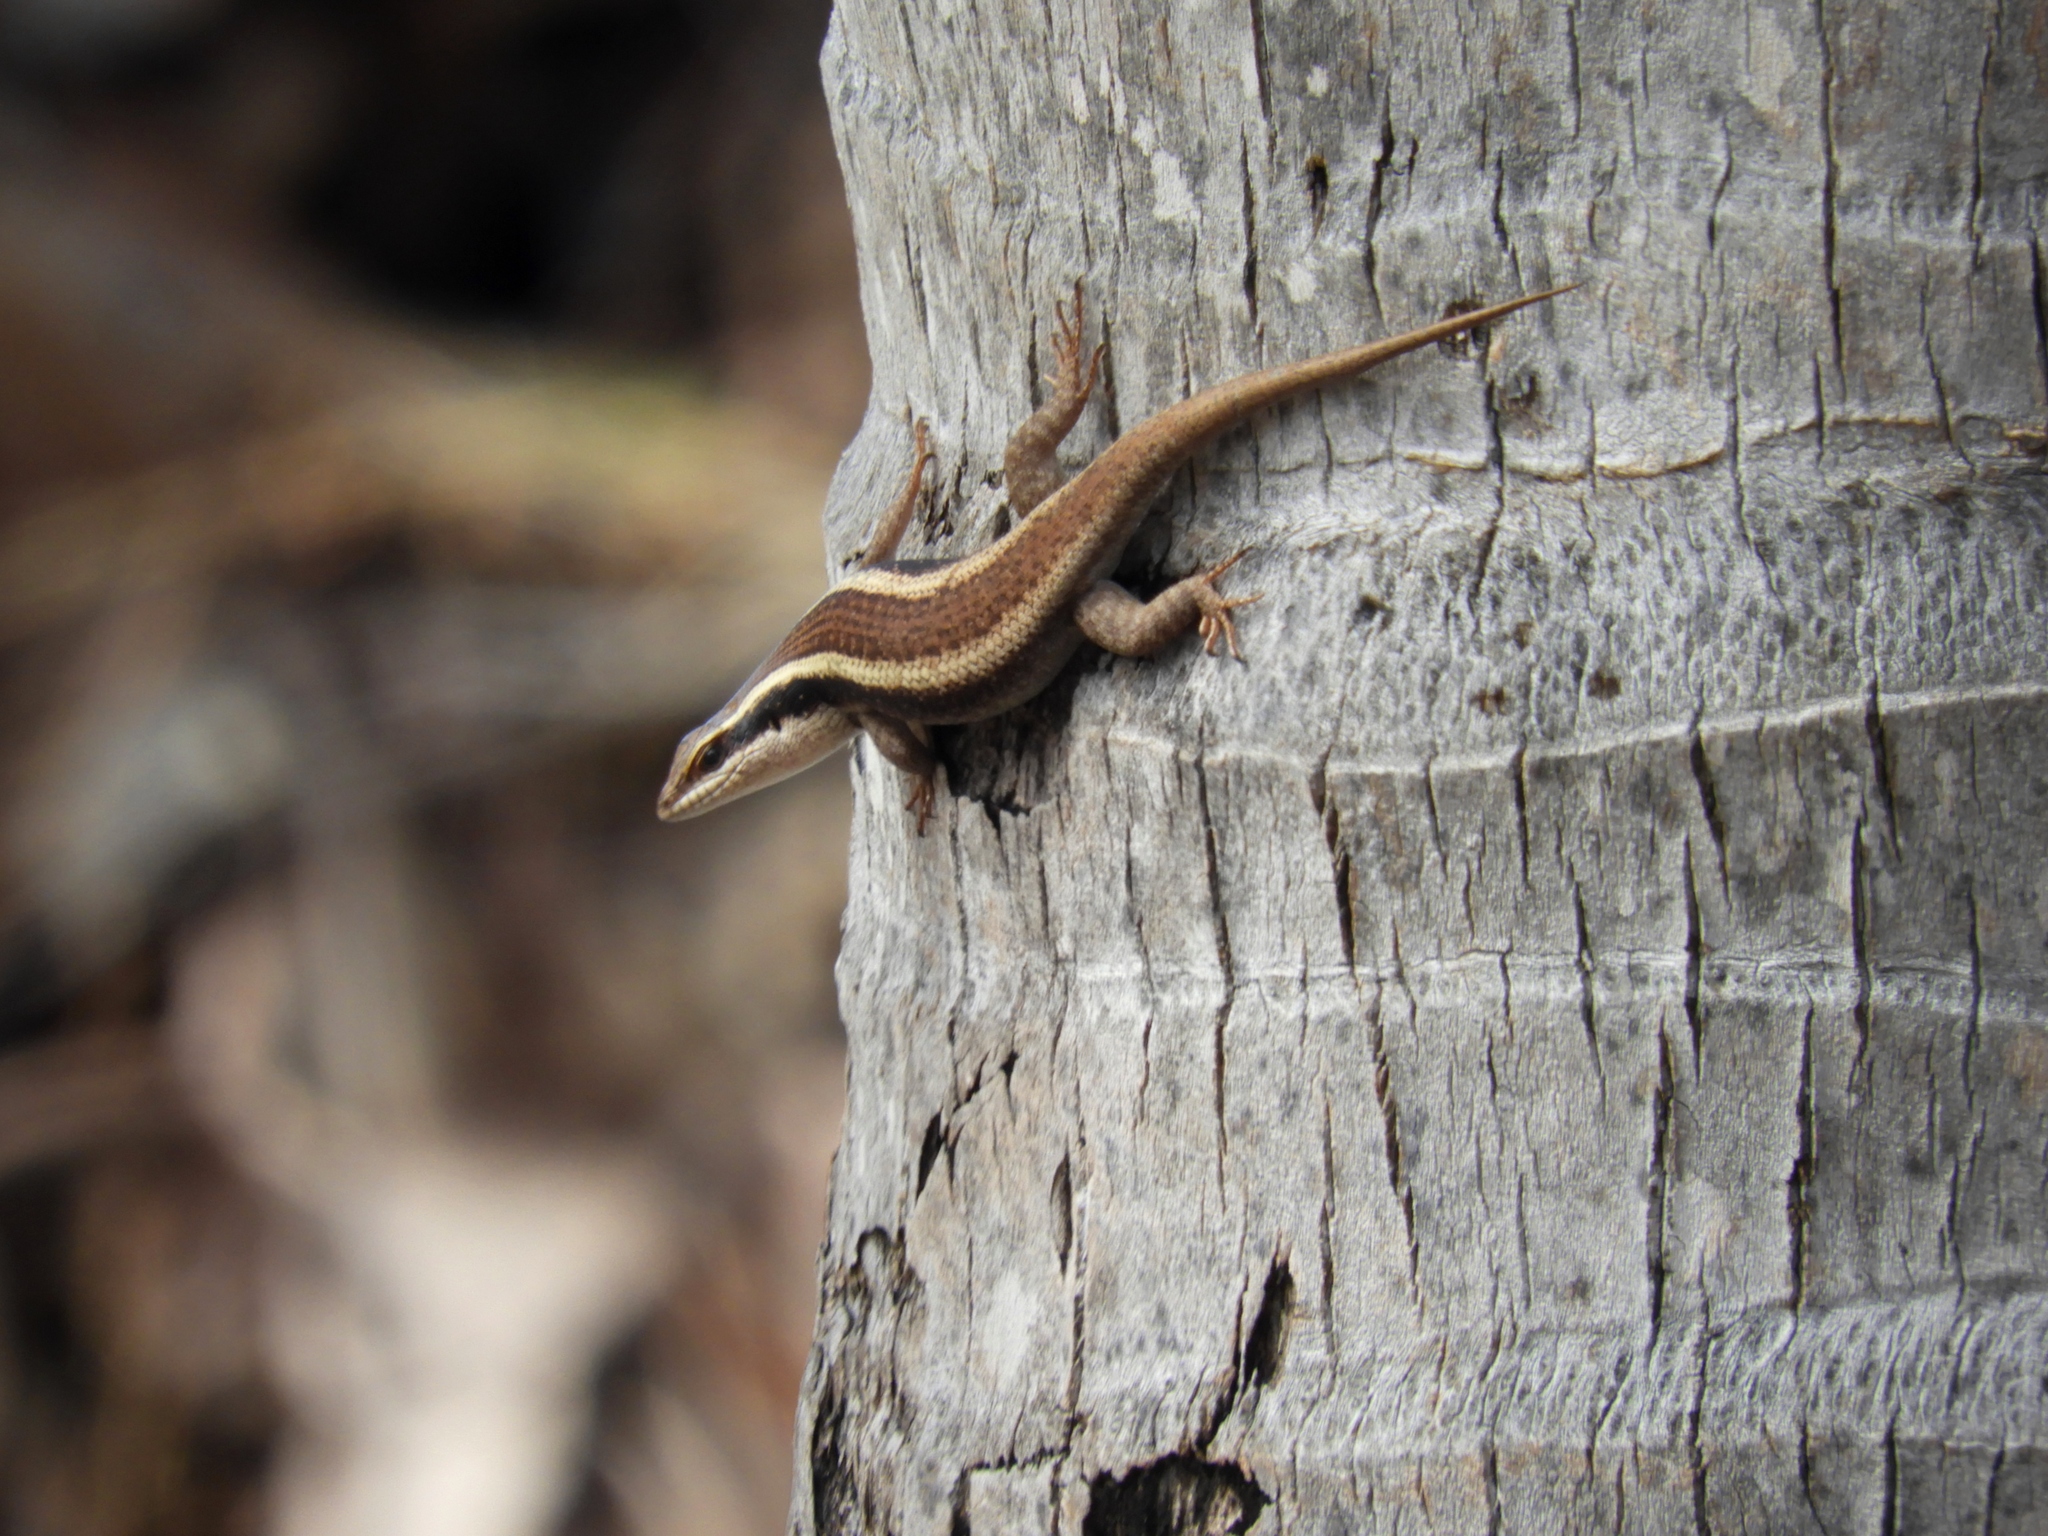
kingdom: Animalia
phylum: Chordata
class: Squamata
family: Scincidae
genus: Trachylepis
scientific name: Trachylepis striata
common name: African striped mabuya
